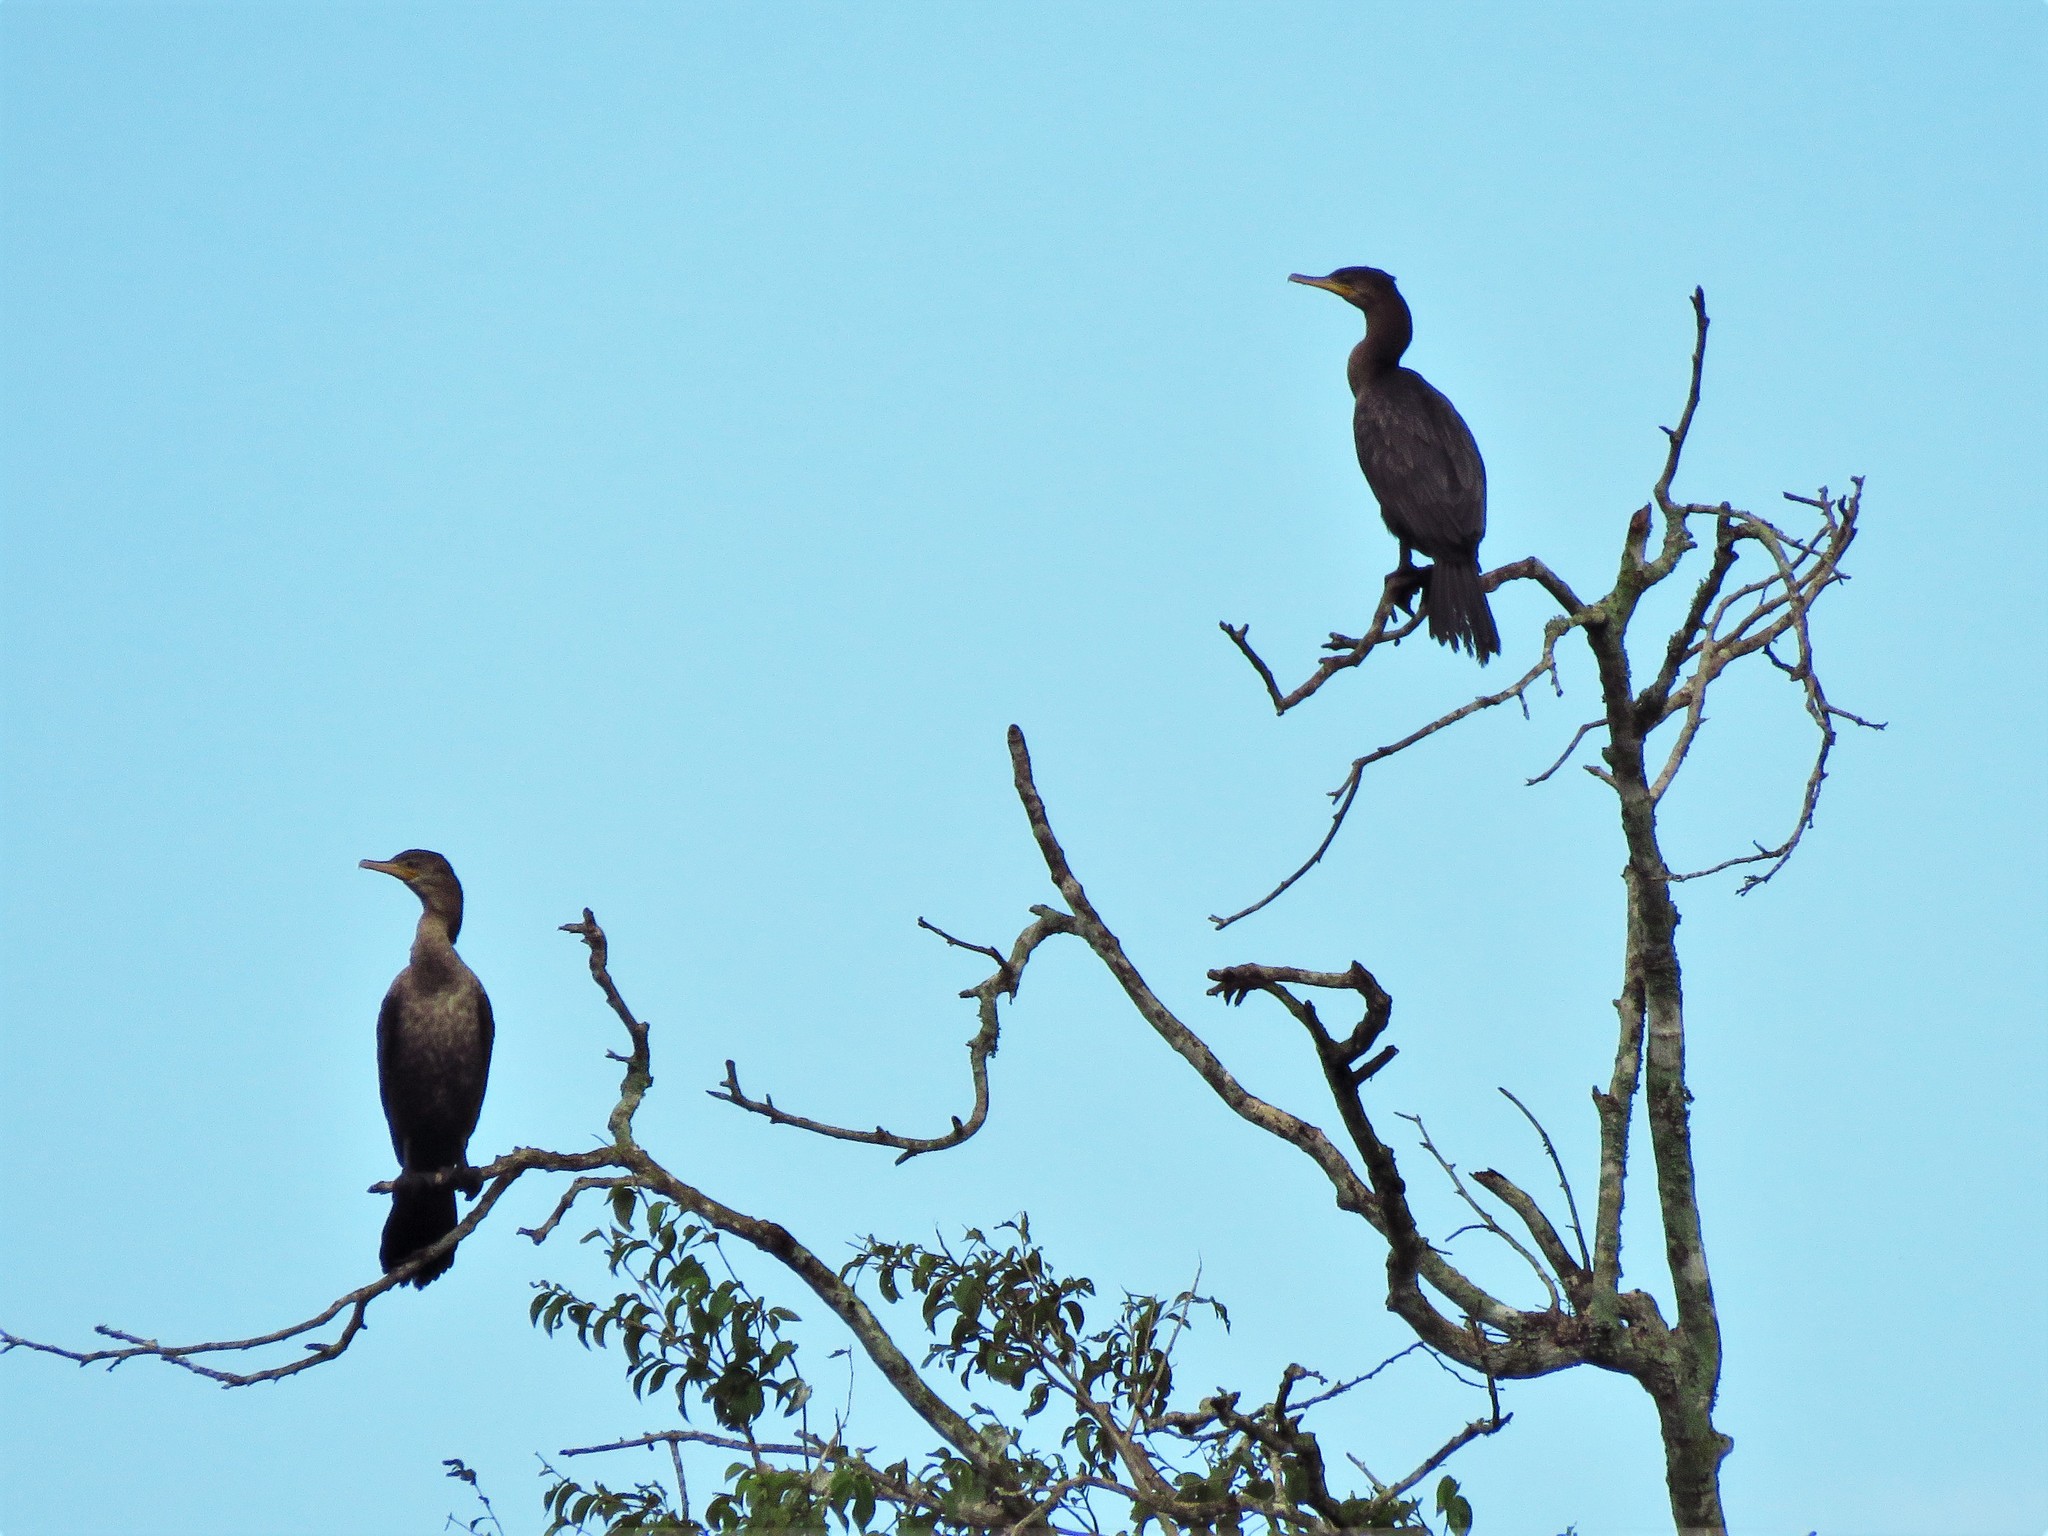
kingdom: Animalia
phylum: Chordata
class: Aves
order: Suliformes
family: Phalacrocoracidae
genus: Phalacrocorax
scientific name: Phalacrocorax brasilianus
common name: Neotropic cormorant
